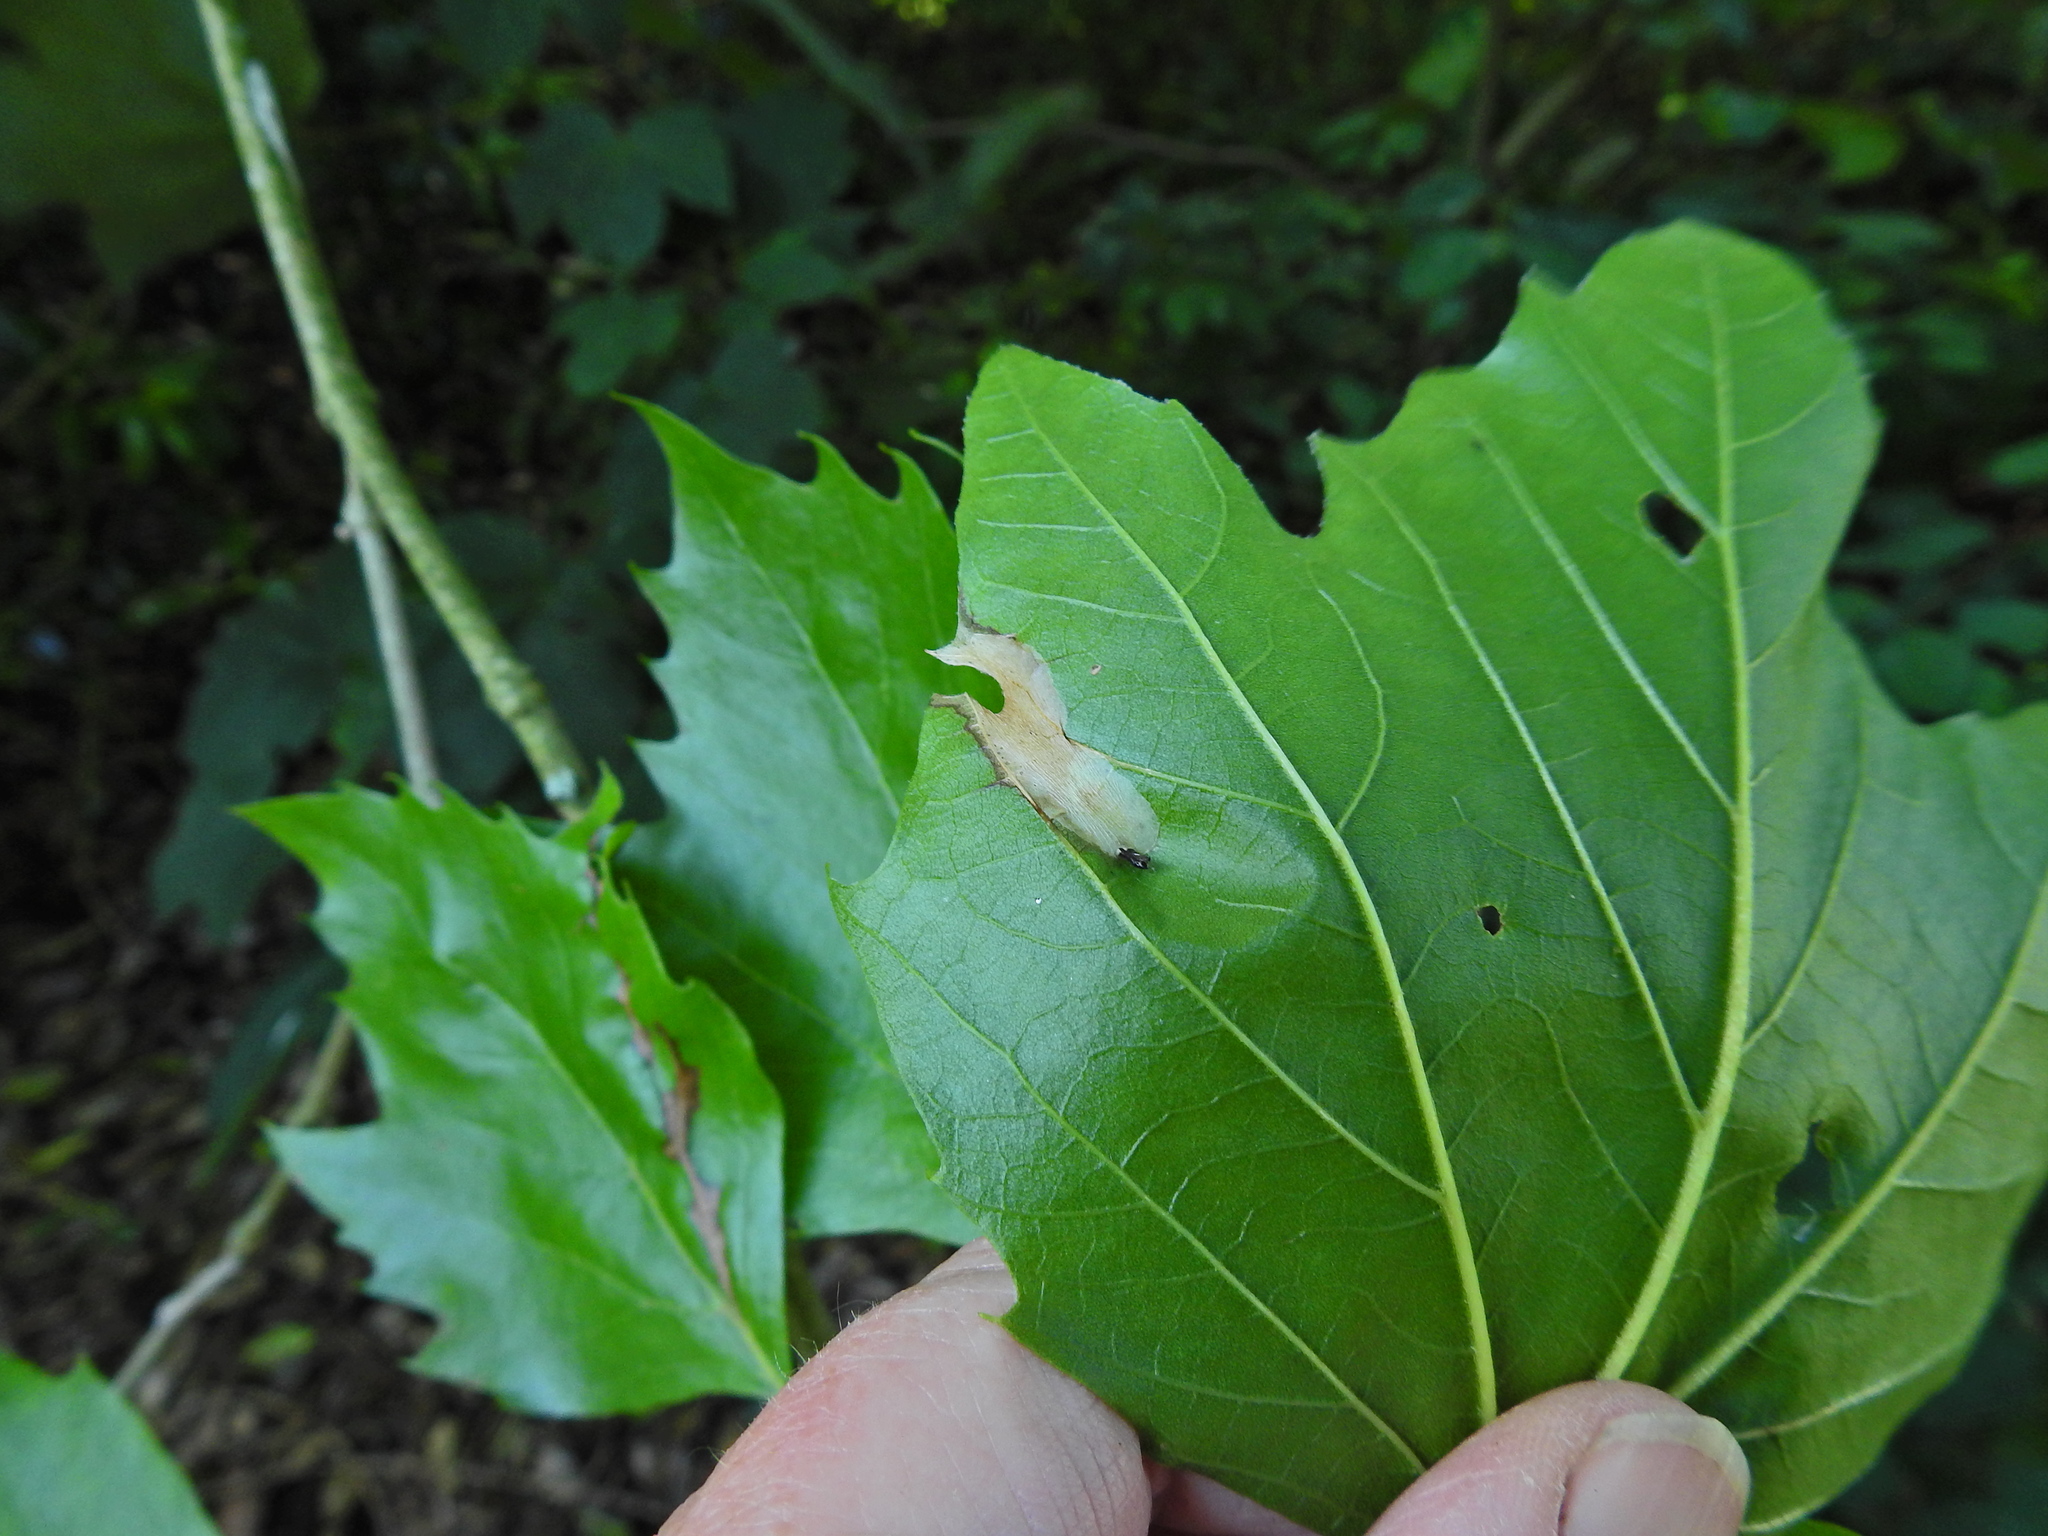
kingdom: Animalia
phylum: Arthropoda
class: Insecta
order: Lepidoptera
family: Gracillariidae
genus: Phyllonorycter
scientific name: Phyllonorycter platani
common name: London midget
